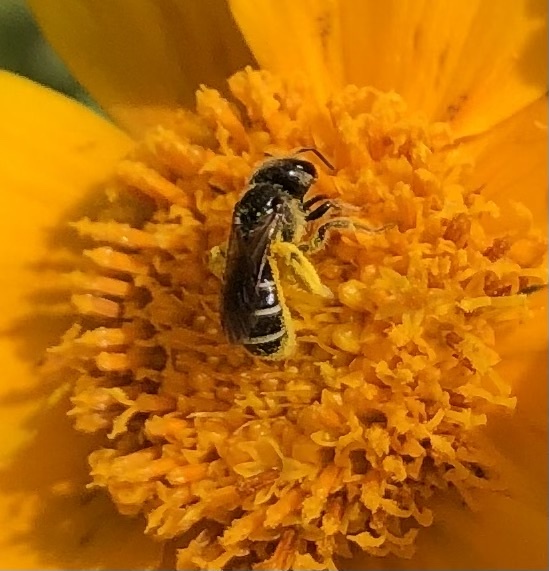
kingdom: Animalia
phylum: Arthropoda
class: Insecta
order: Hymenoptera
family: Halictidae
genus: Halictus
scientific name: Halictus poeyi
